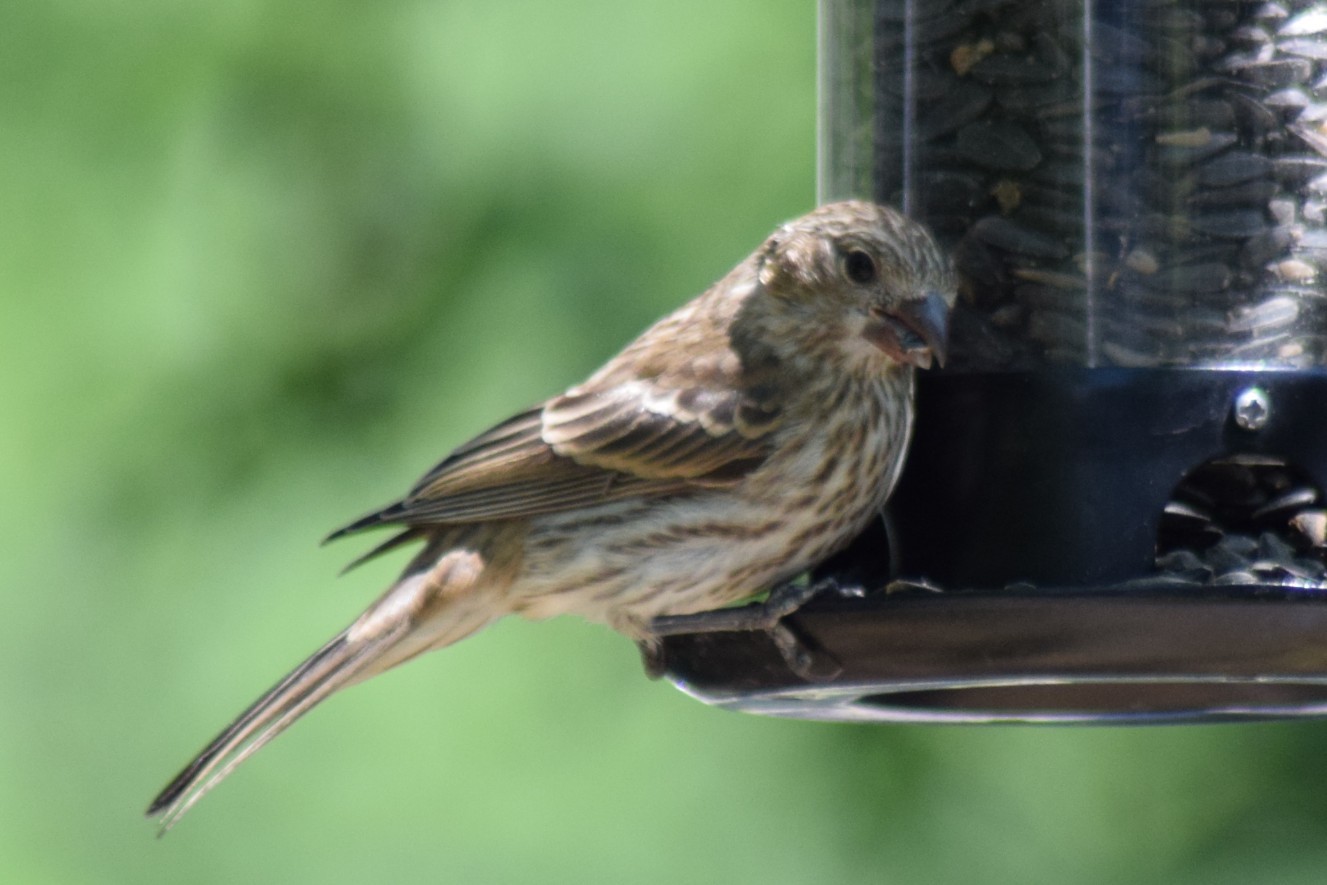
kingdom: Animalia
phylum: Chordata
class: Aves
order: Passeriformes
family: Fringillidae
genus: Haemorhous
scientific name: Haemorhous mexicanus
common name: House finch
